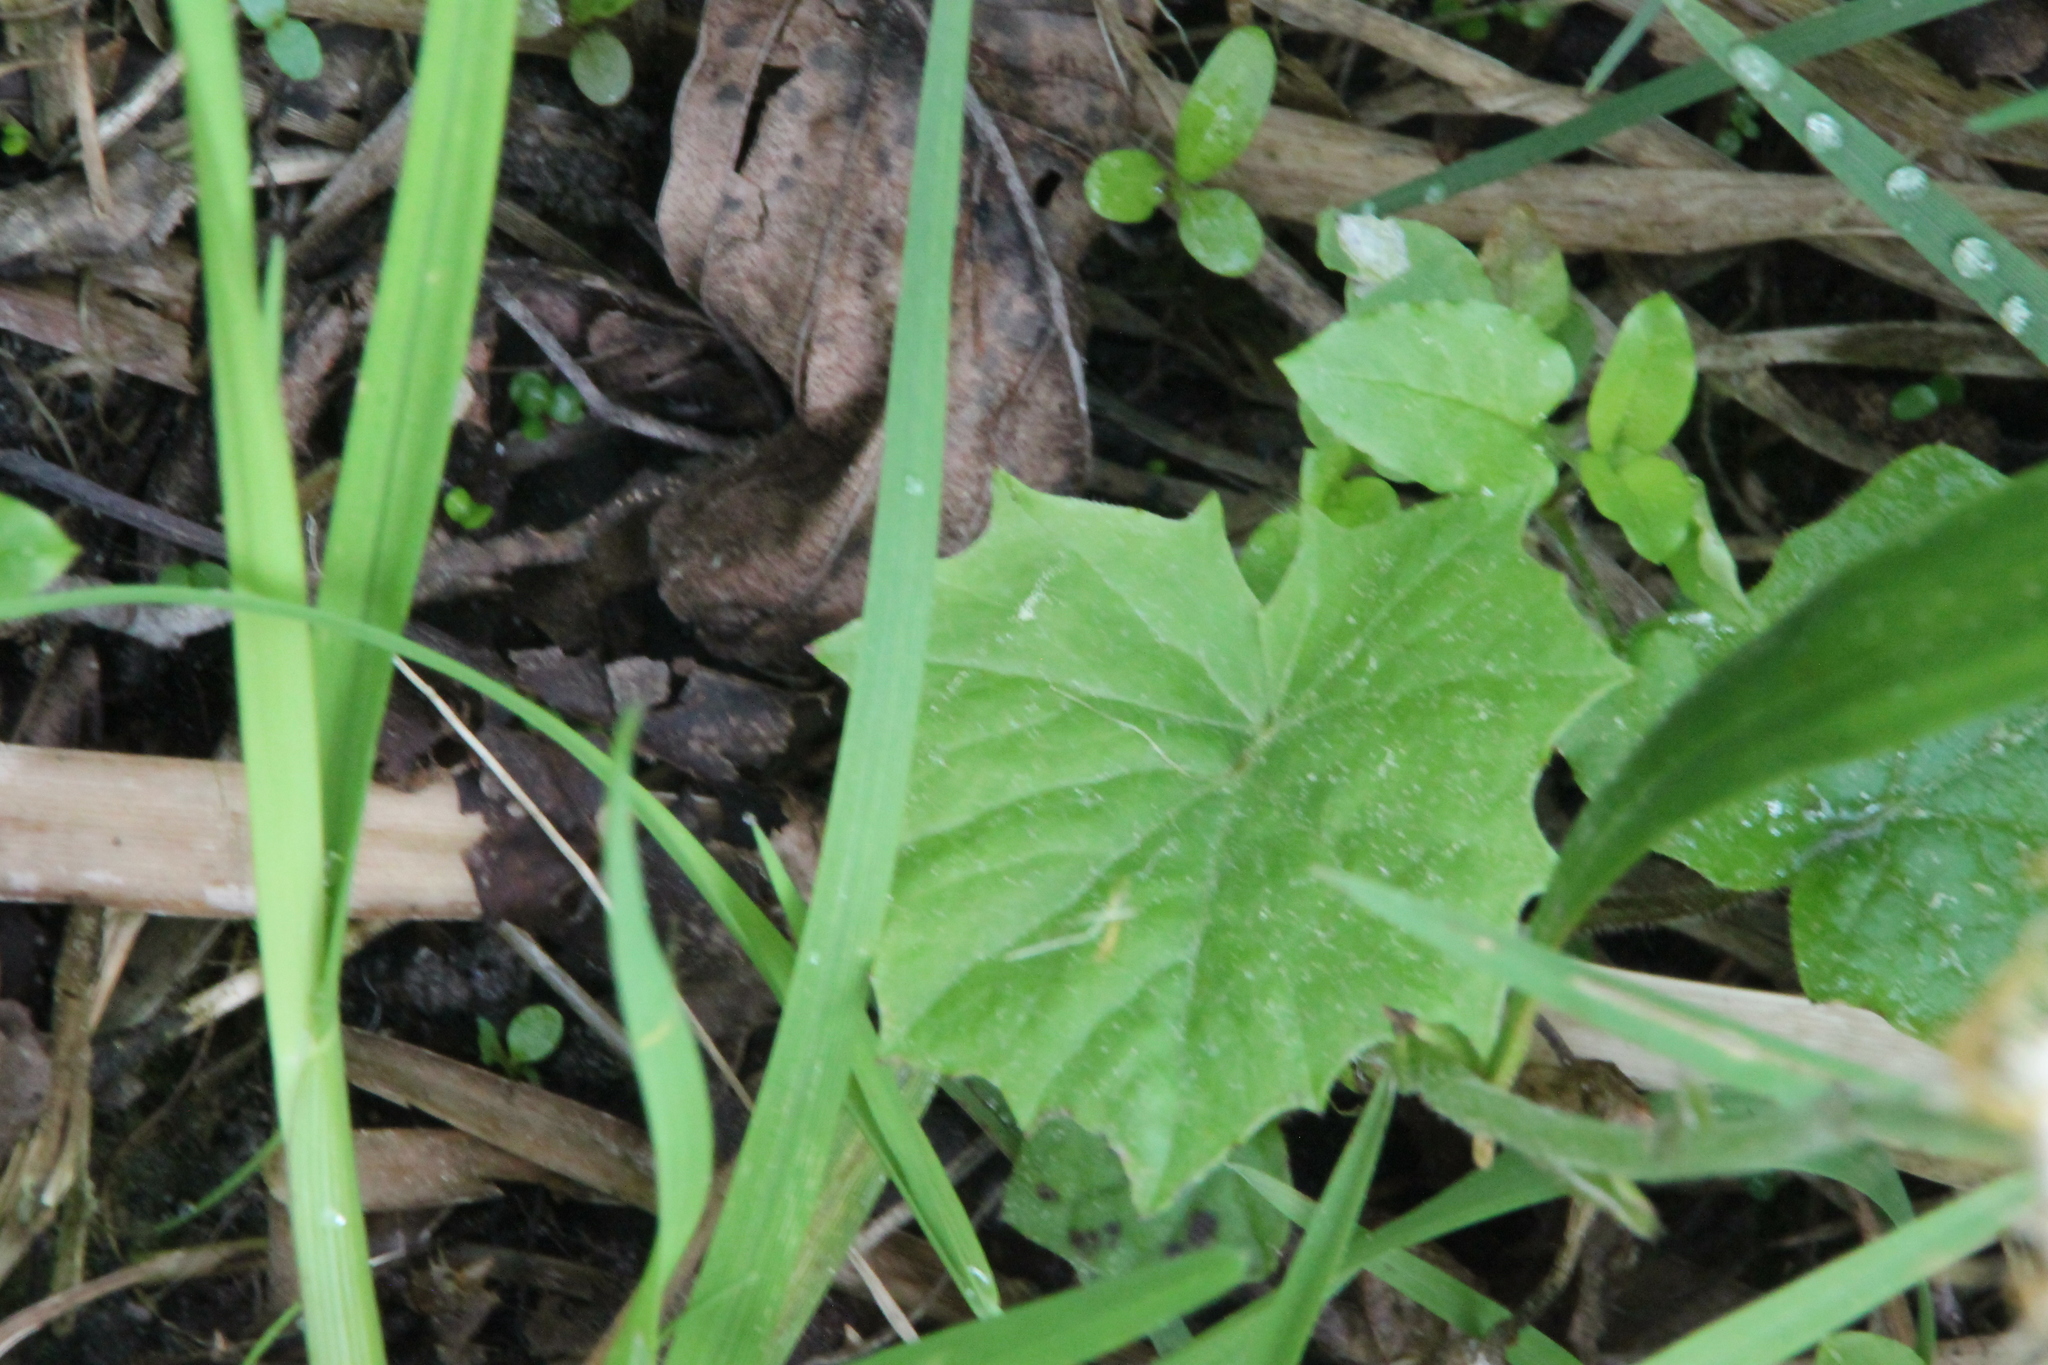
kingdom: Plantae
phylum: Tracheophyta
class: Magnoliopsida
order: Asterales
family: Asteraceae
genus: Tussilago
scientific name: Tussilago farfara
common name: Coltsfoot
